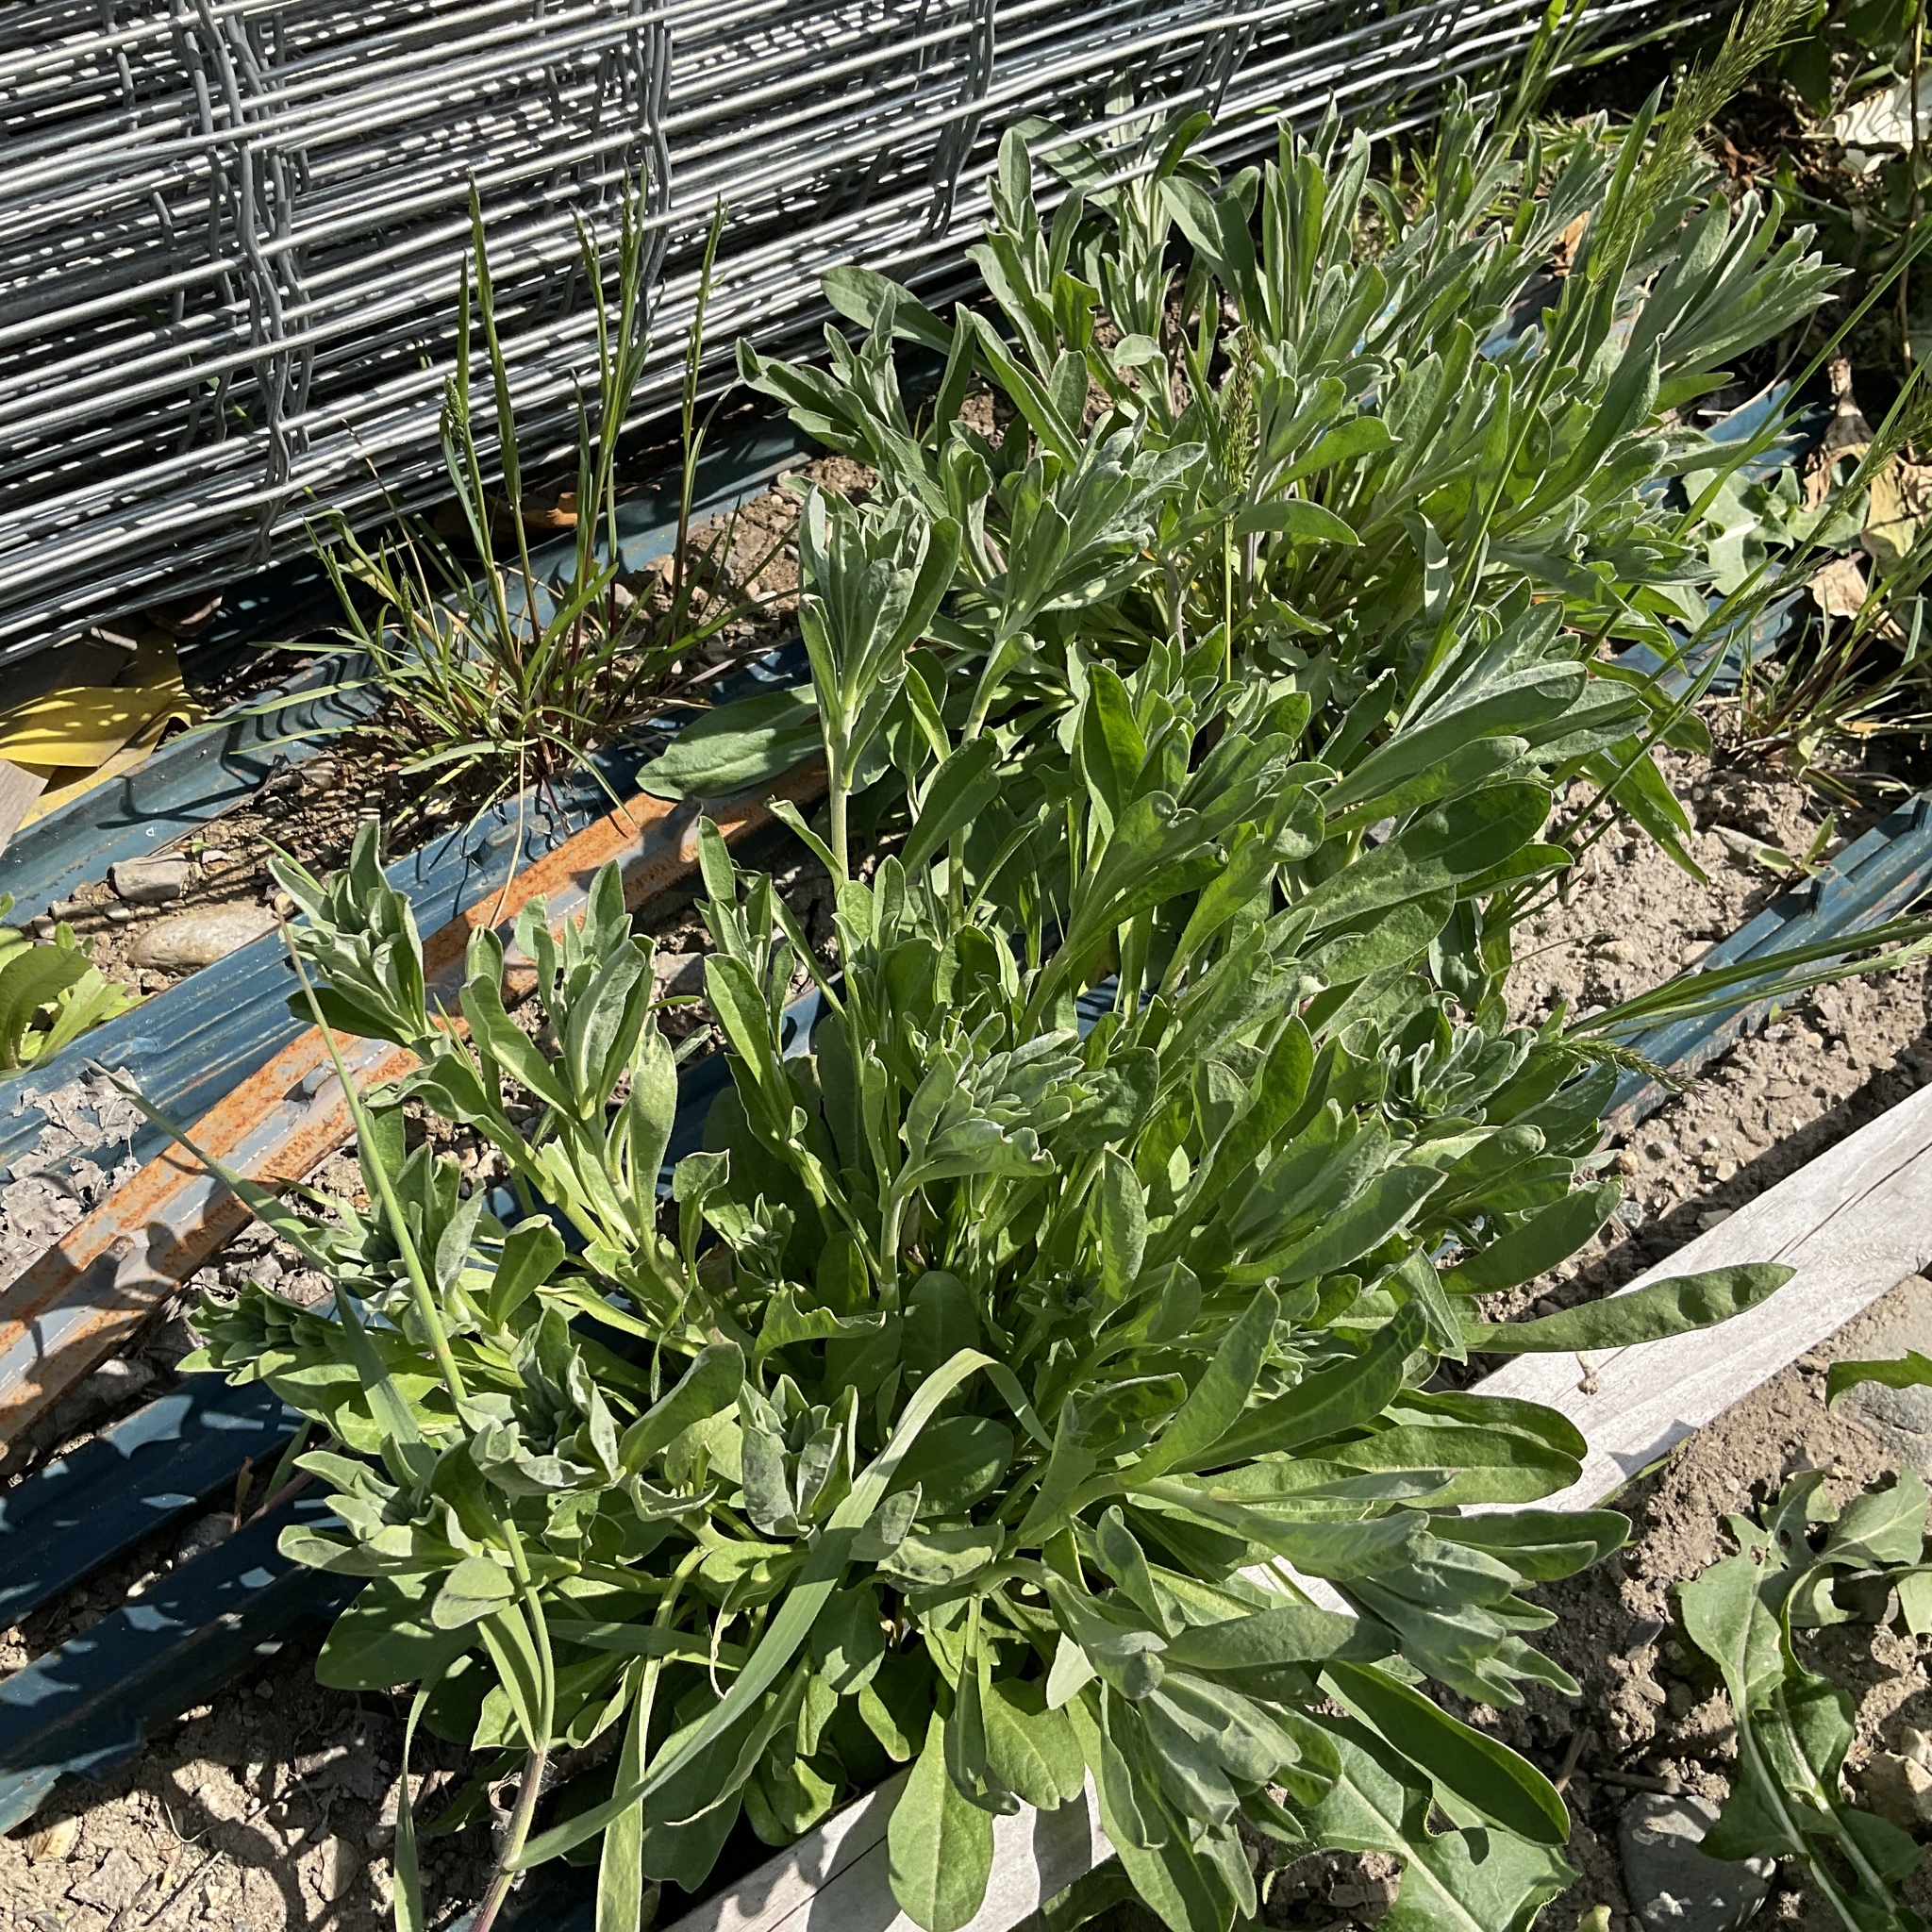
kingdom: Plantae
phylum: Tracheophyta
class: Magnoliopsida
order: Brassicales
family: Brassicaceae
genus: Berteroa
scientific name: Berteroa incana
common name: Hoary alison
